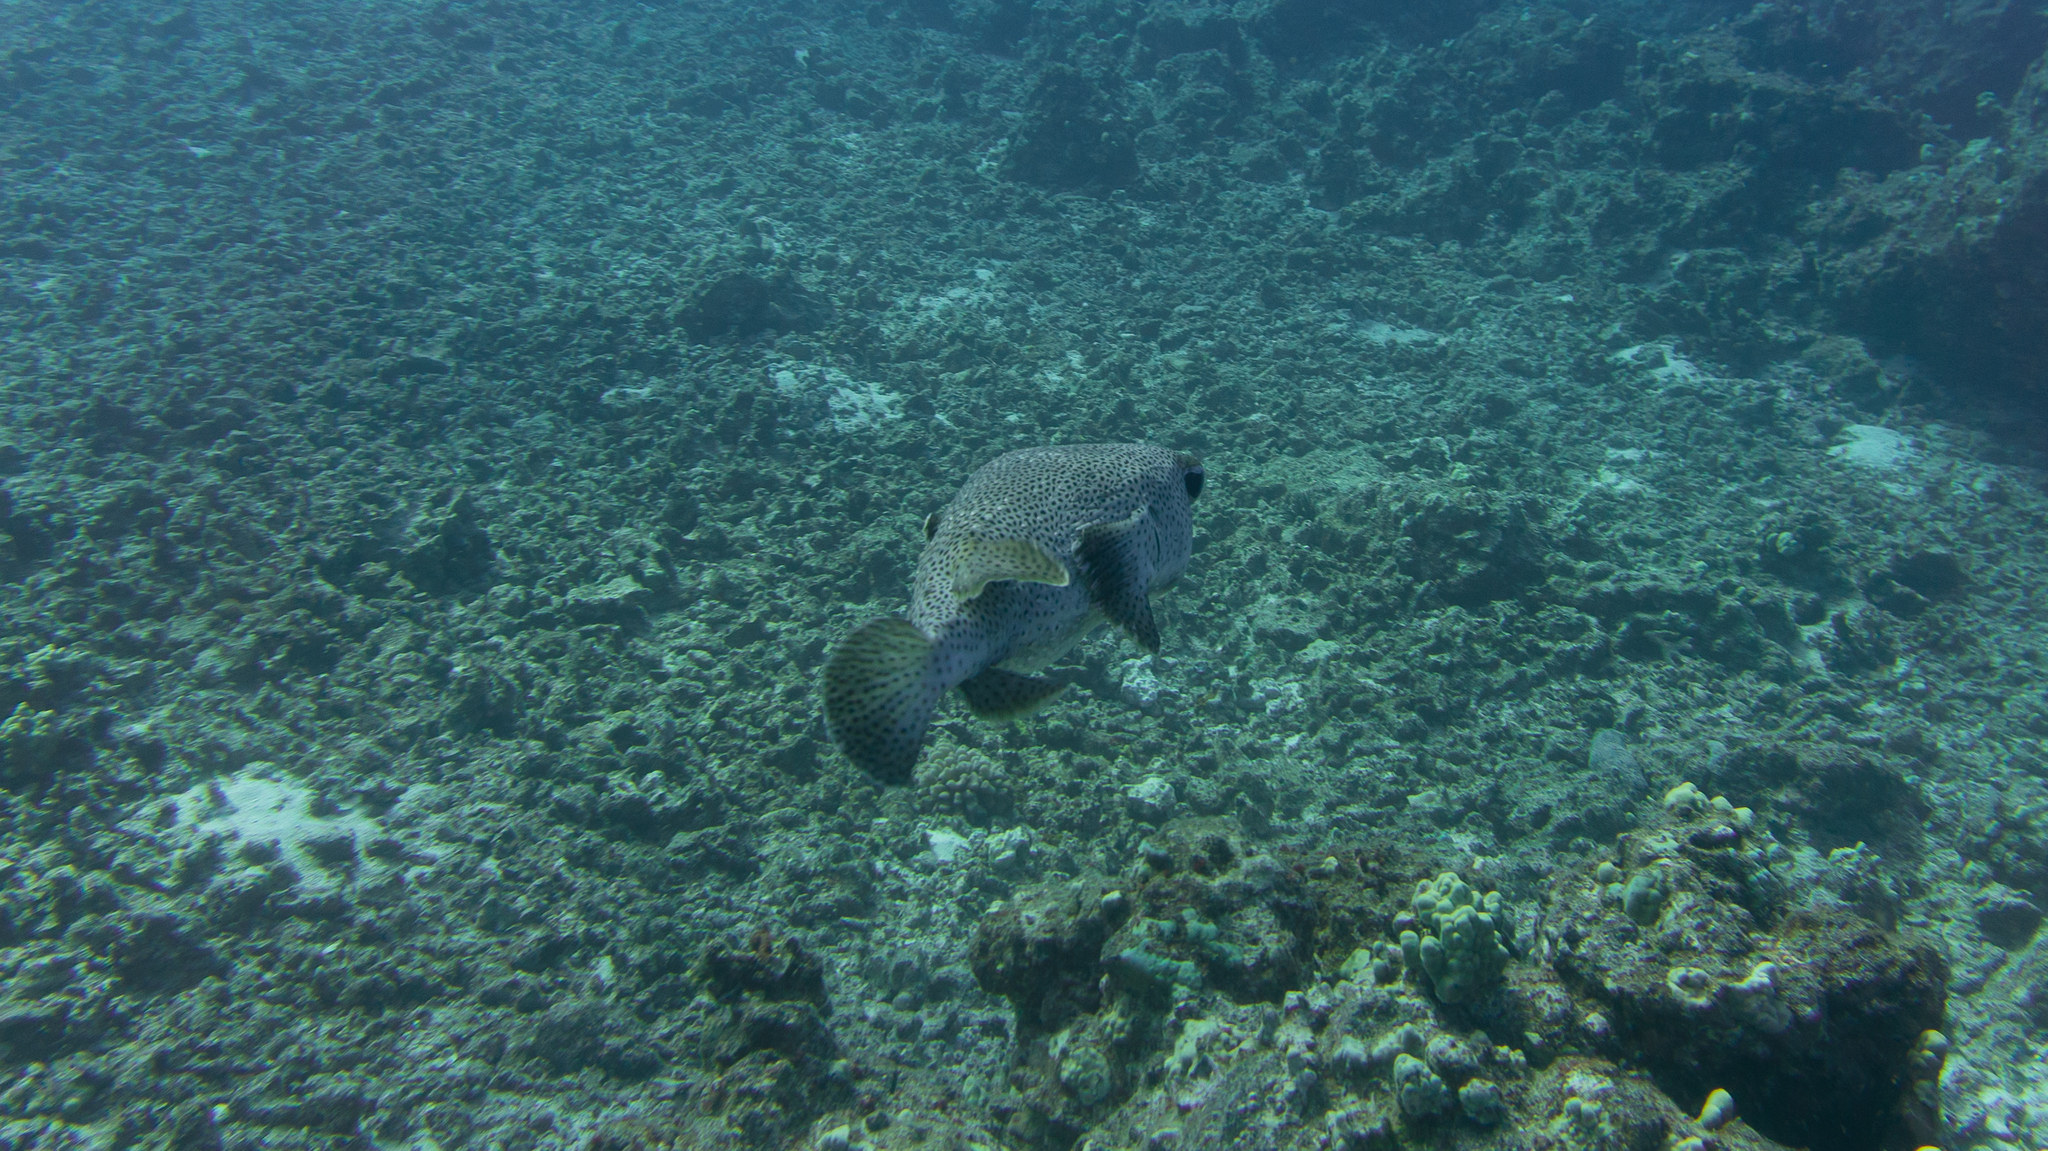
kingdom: Animalia
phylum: Chordata
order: Tetraodontiformes
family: Diodontidae
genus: Diodon
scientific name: Diodon hystrix
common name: Giant porcupinefish
